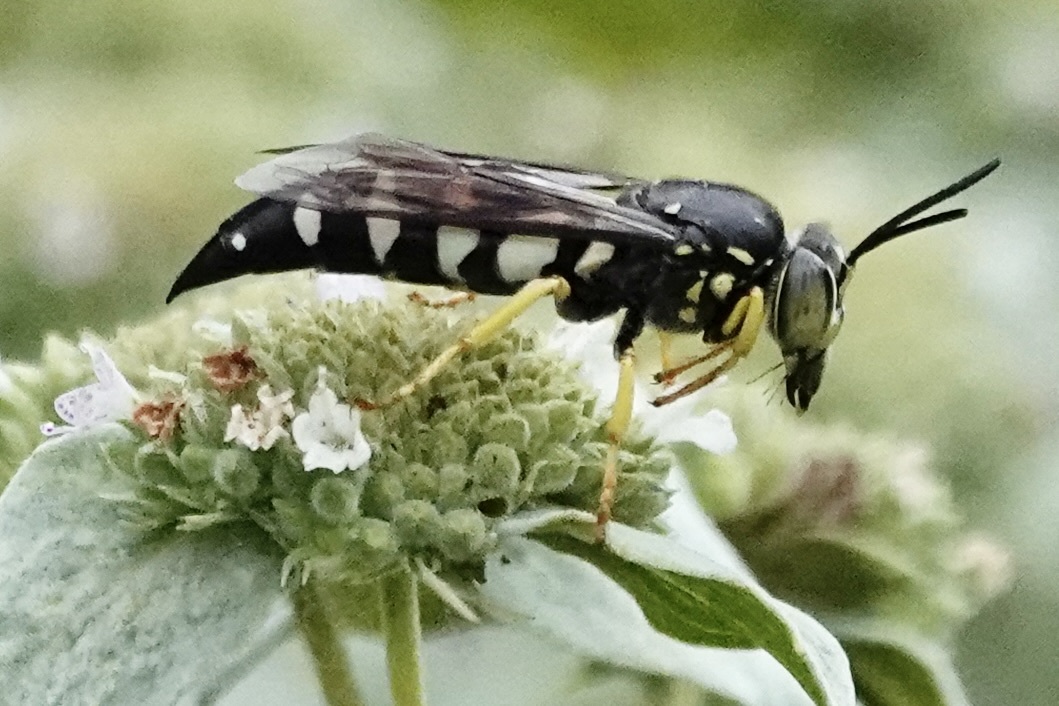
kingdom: Animalia
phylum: Arthropoda
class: Insecta
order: Hymenoptera
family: Crabronidae
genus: Bicyrtes
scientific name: Bicyrtes quadrifasciatus
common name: Four-banded stink bug hunter wasp
